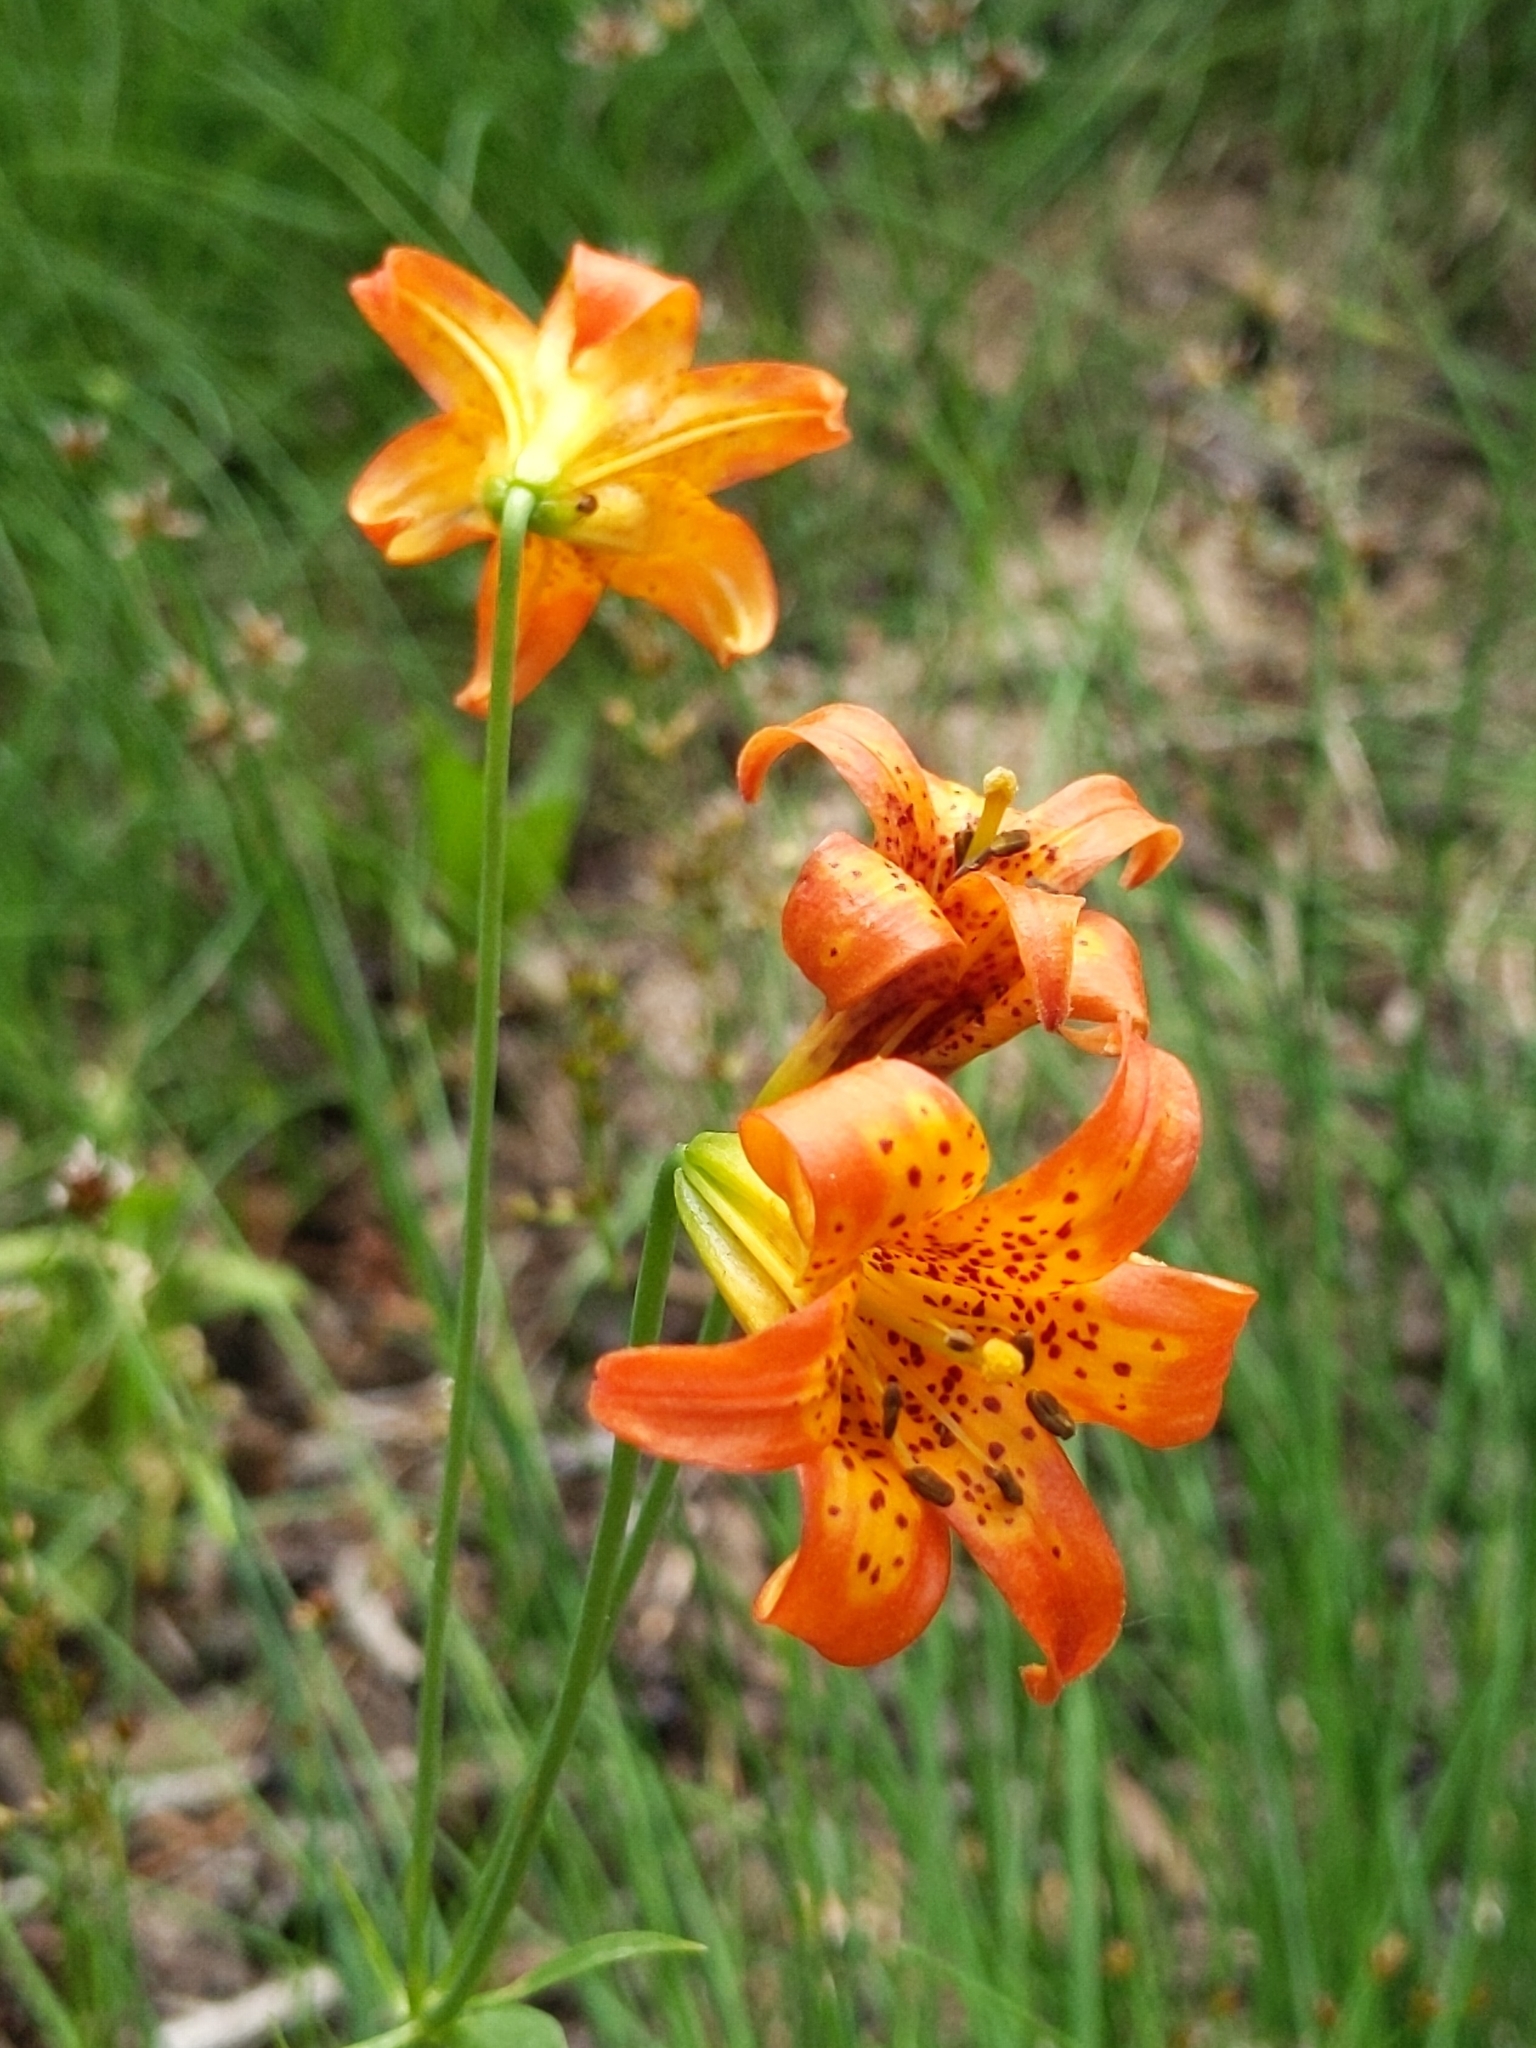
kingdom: Plantae
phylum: Tracheophyta
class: Liliopsida
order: Liliales
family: Liliaceae
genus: Lilium
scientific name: Lilium parvum
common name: Alpine lily
